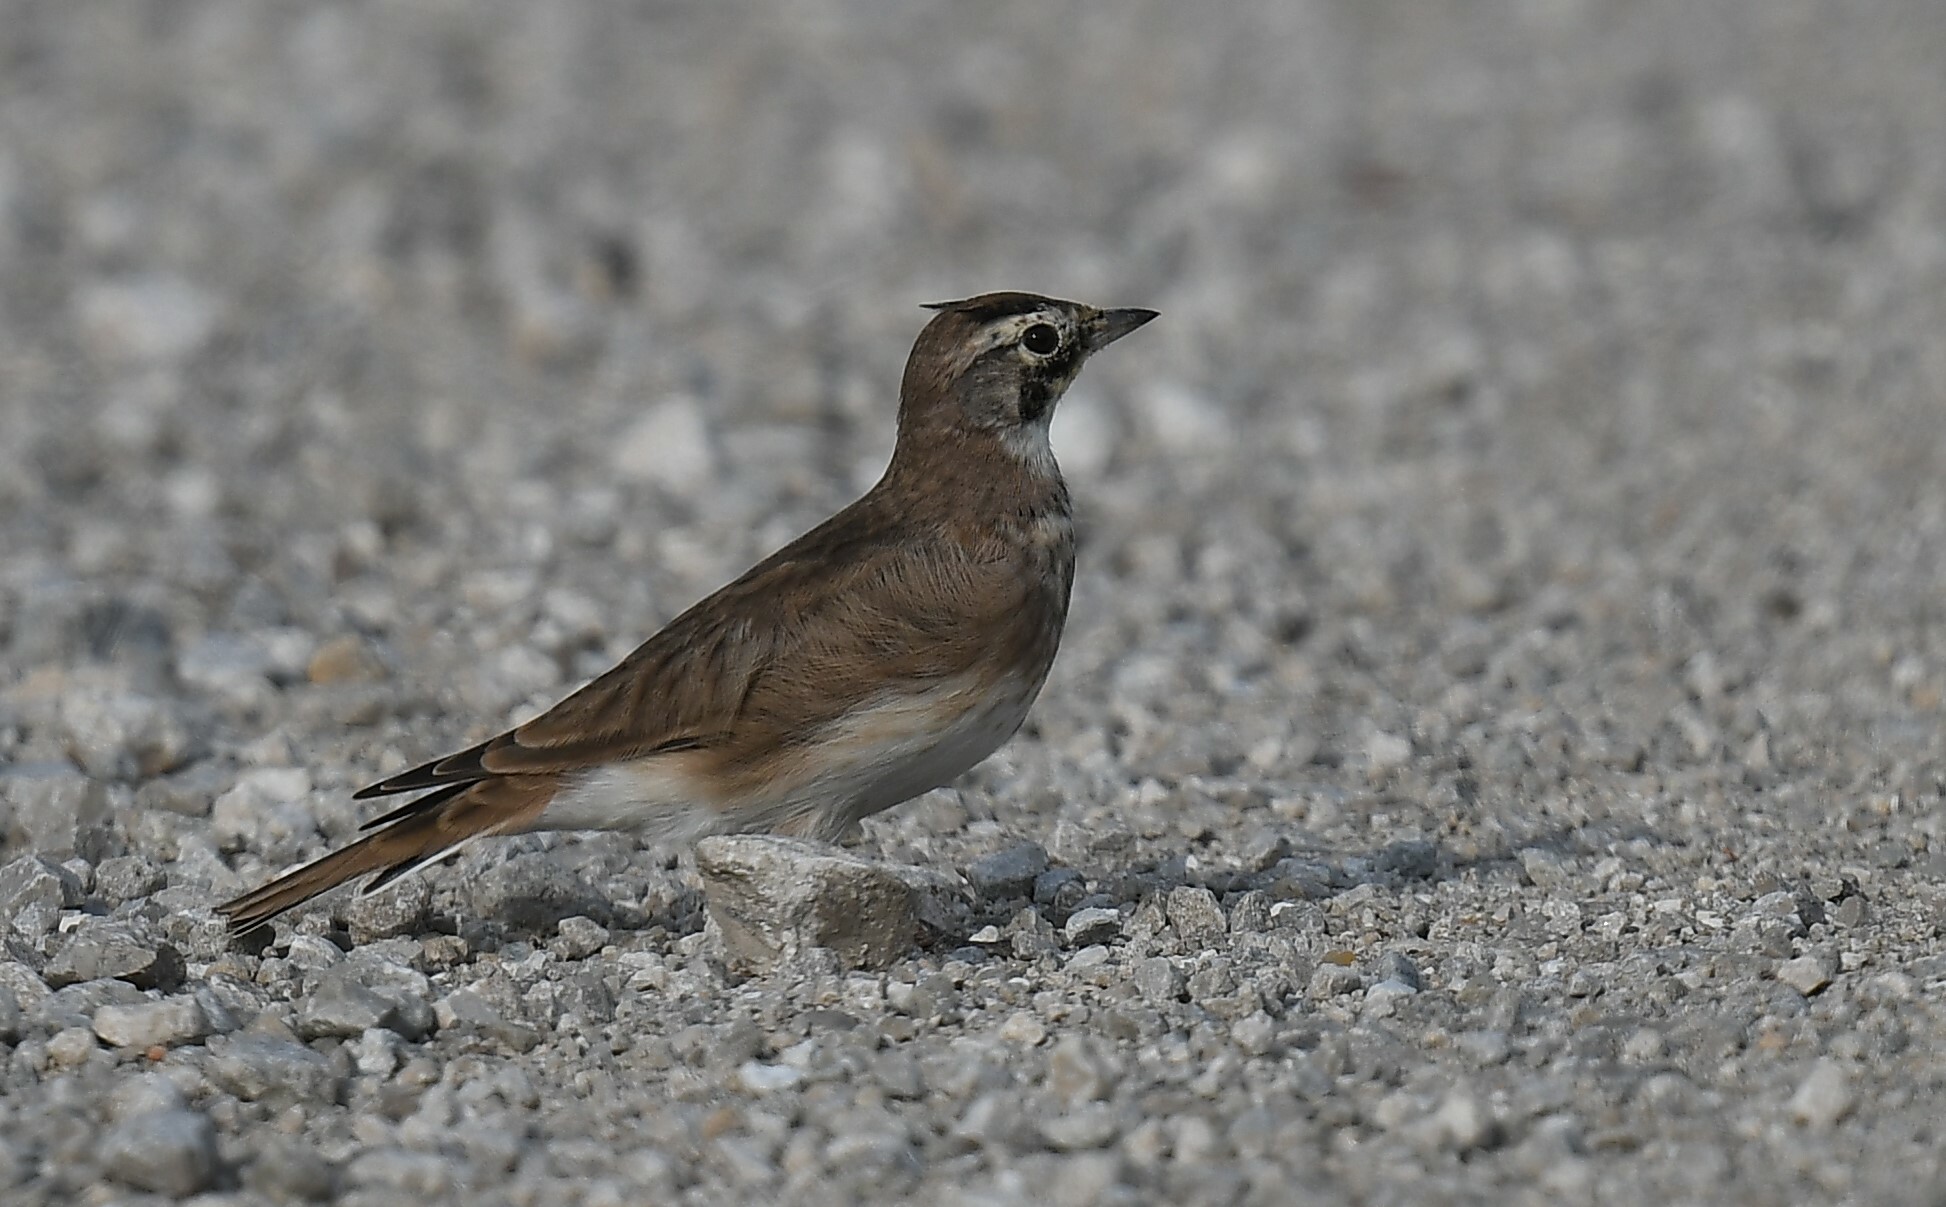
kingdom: Animalia
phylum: Chordata
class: Aves
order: Passeriformes
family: Alaudidae
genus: Eremophila
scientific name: Eremophila alpestris
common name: Horned lark
